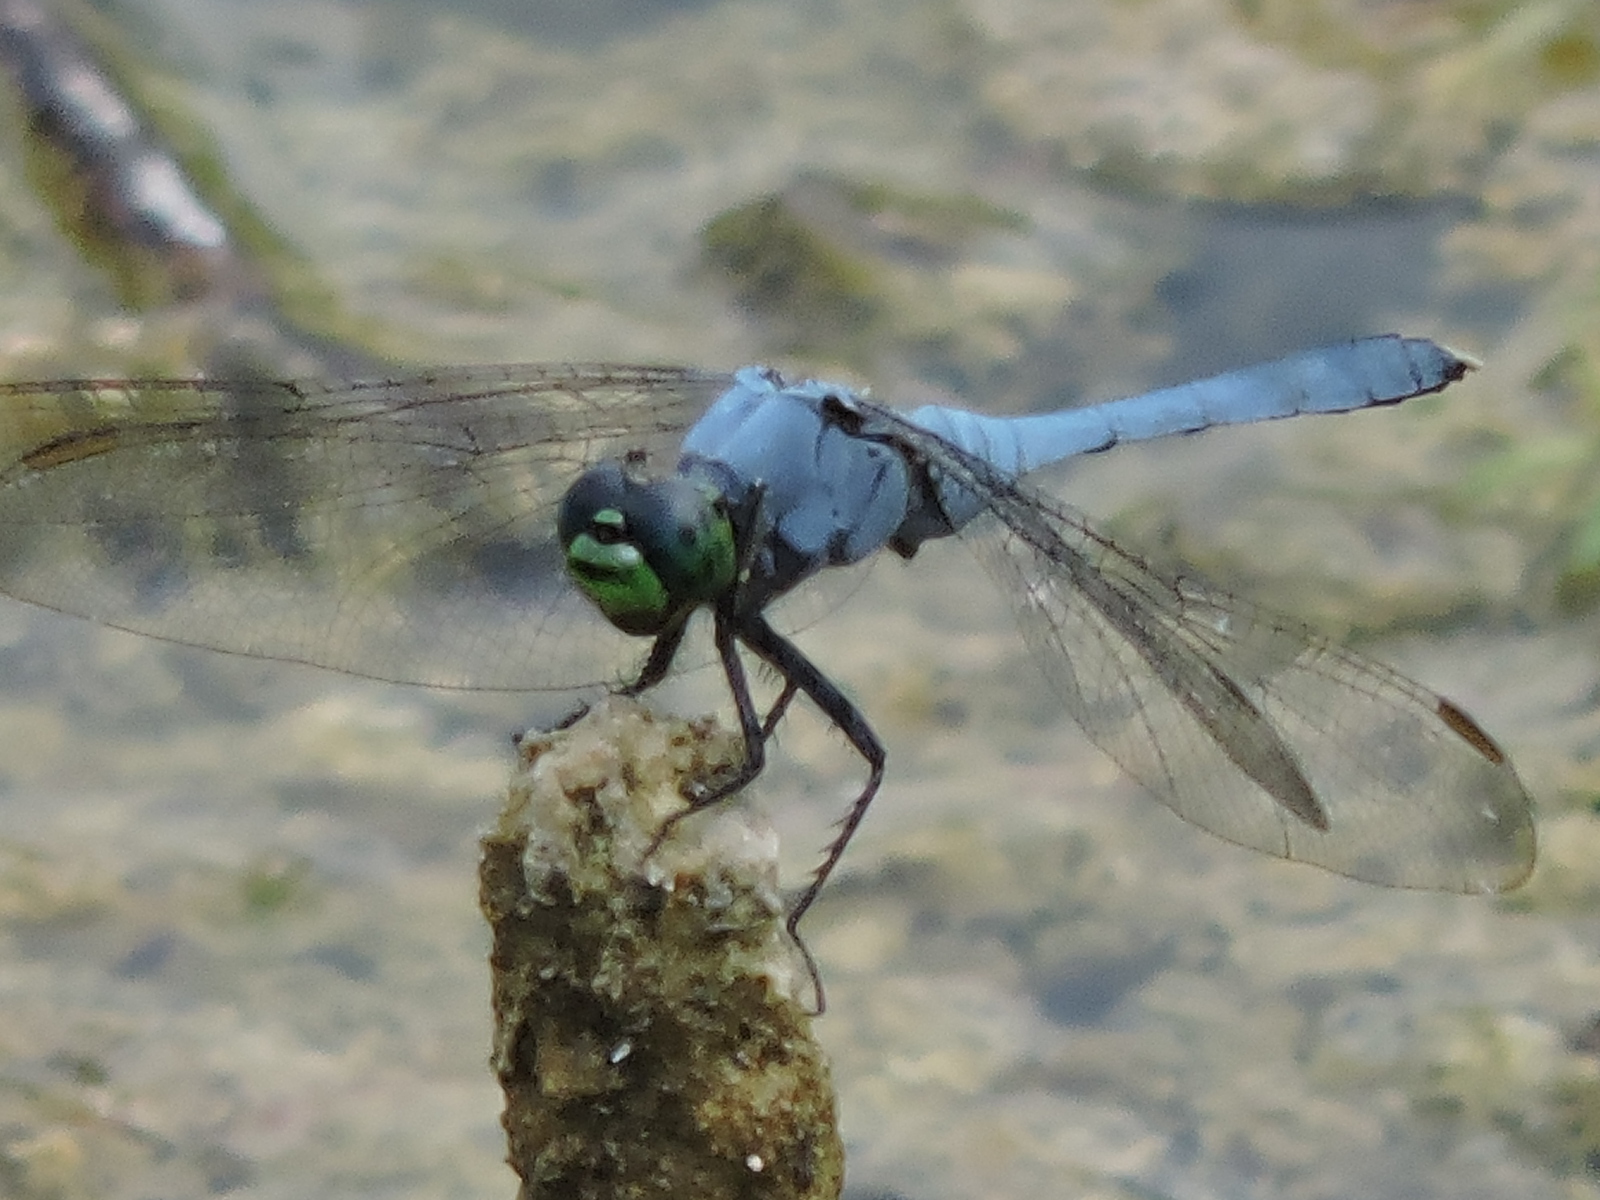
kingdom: Animalia
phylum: Arthropoda
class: Insecta
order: Odonata
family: Libellulidae
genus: Erythemis
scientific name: Erythemis simplicicollis
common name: Eastern pondhawk
